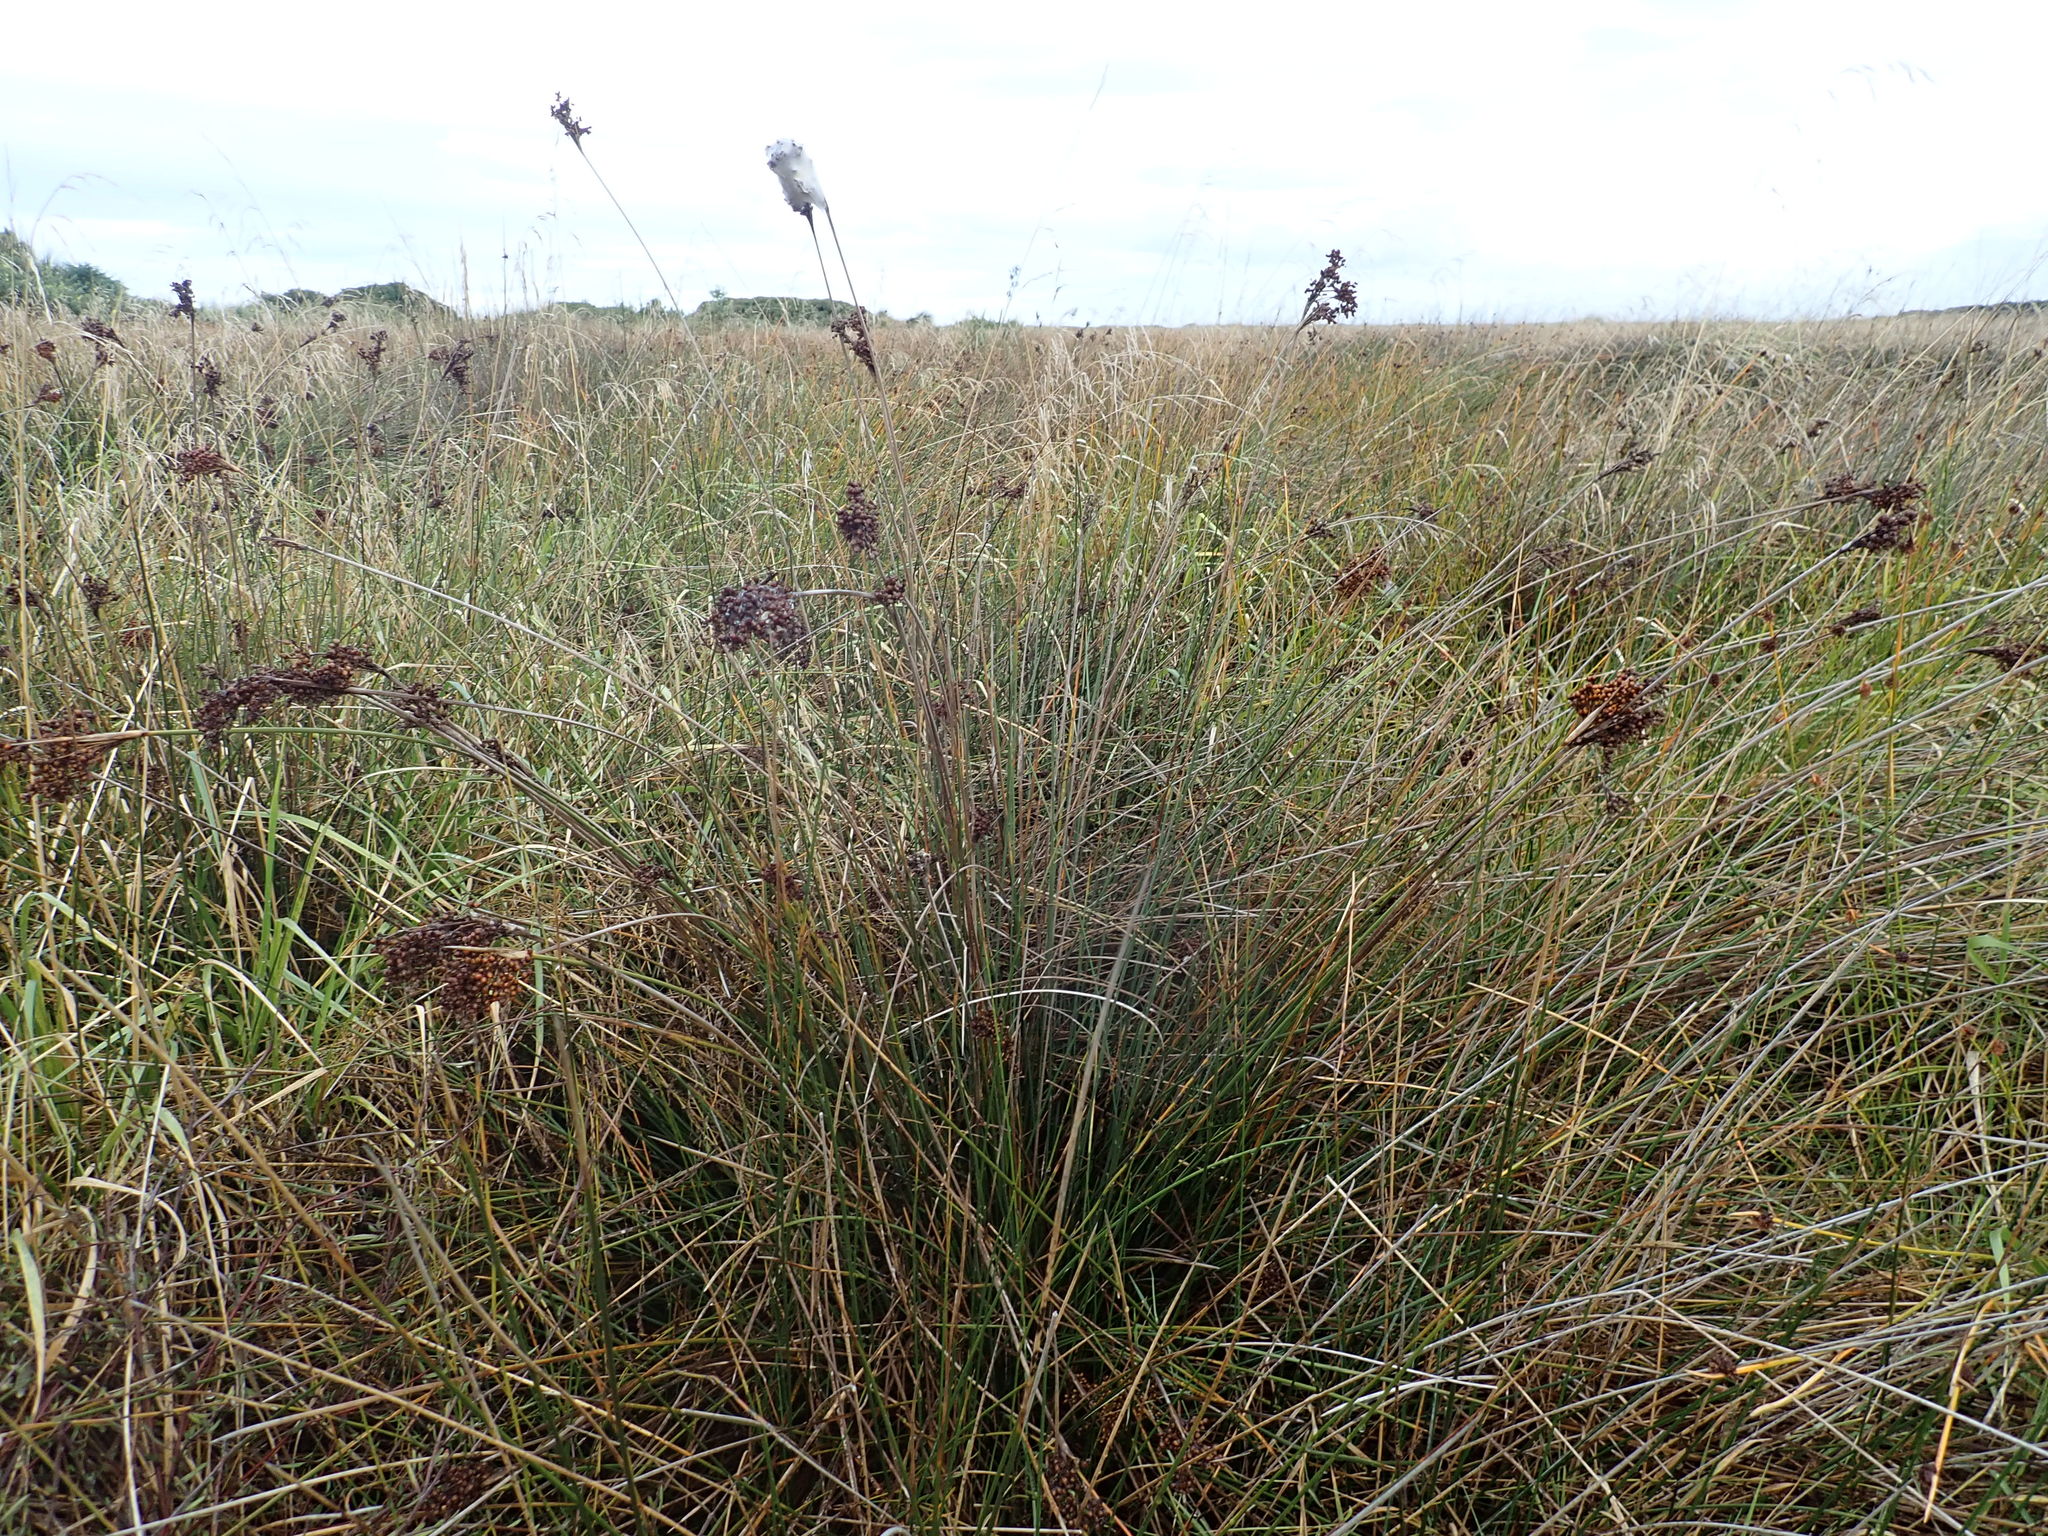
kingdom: Plantae
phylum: Tracheophyta
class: Liliopsida
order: Poales
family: Juncaceae
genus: Juncus
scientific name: Juncus acutus
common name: Sharp rush
